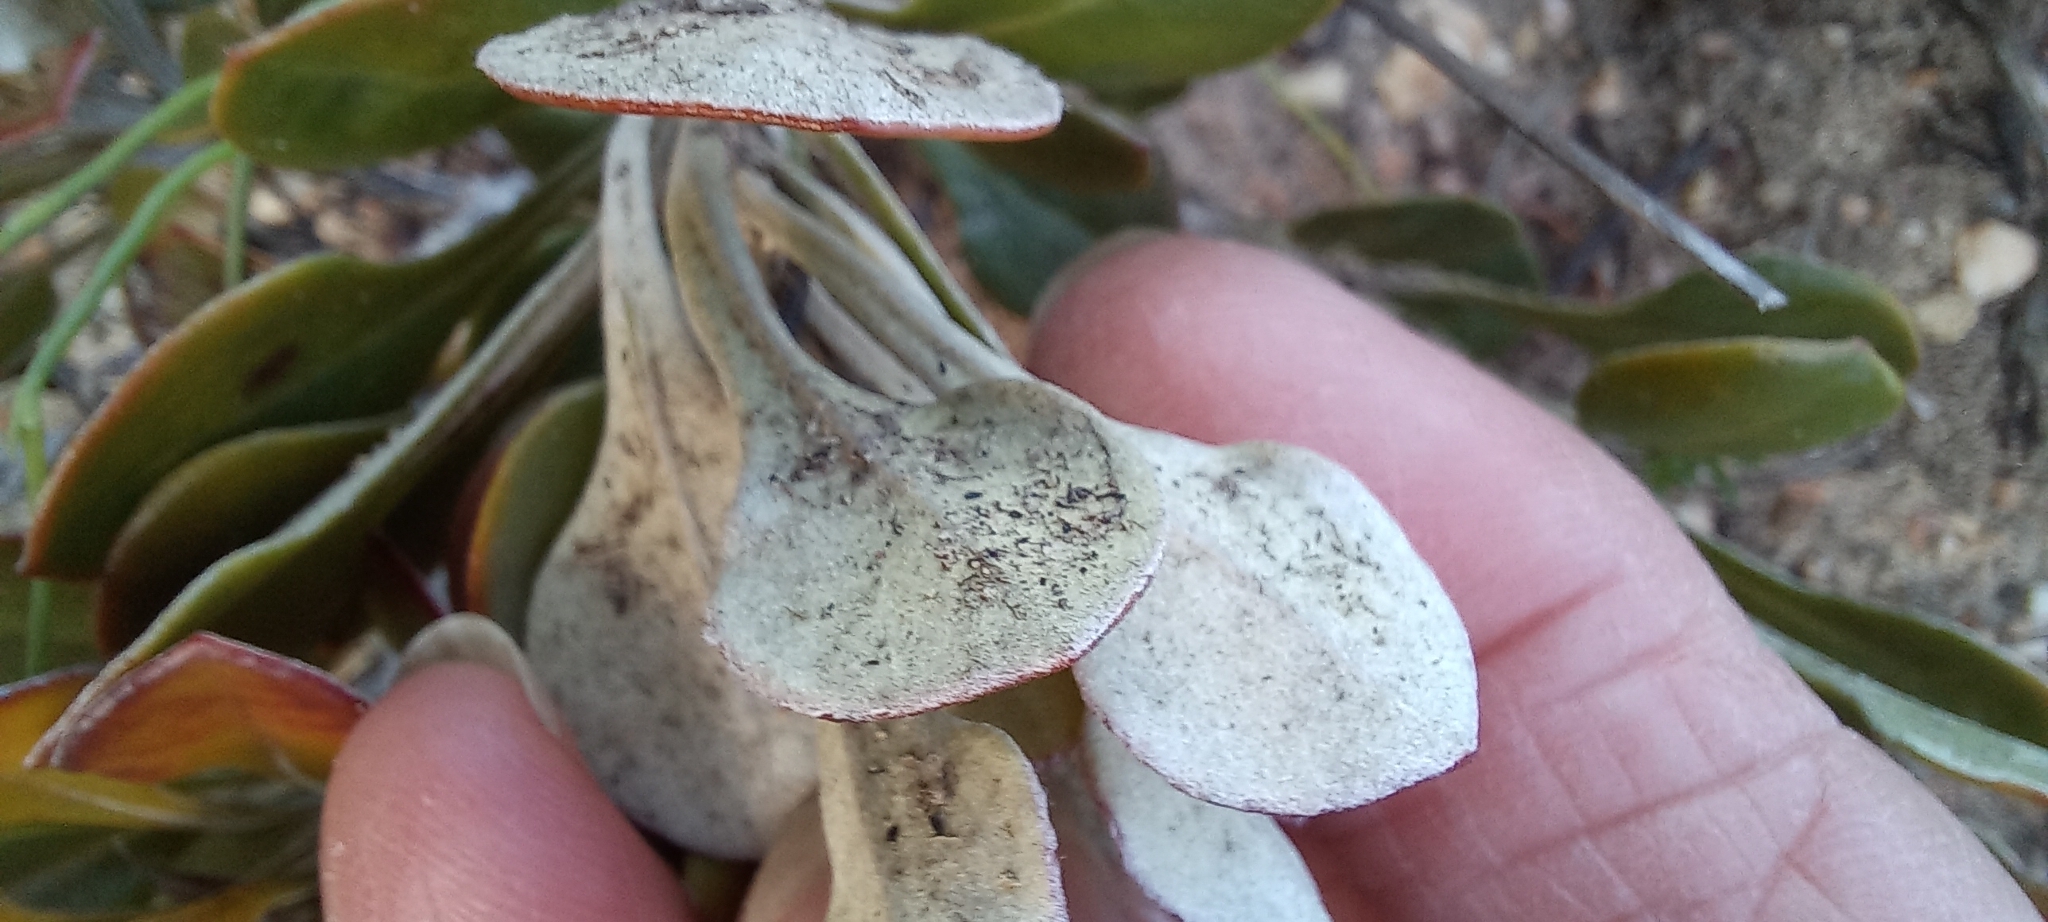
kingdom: Plantae
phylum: Tracheophyta
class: Magnoliopsida
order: Asterales
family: Asteraceae
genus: Osteospermum
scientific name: Osteospermum tomentosum
